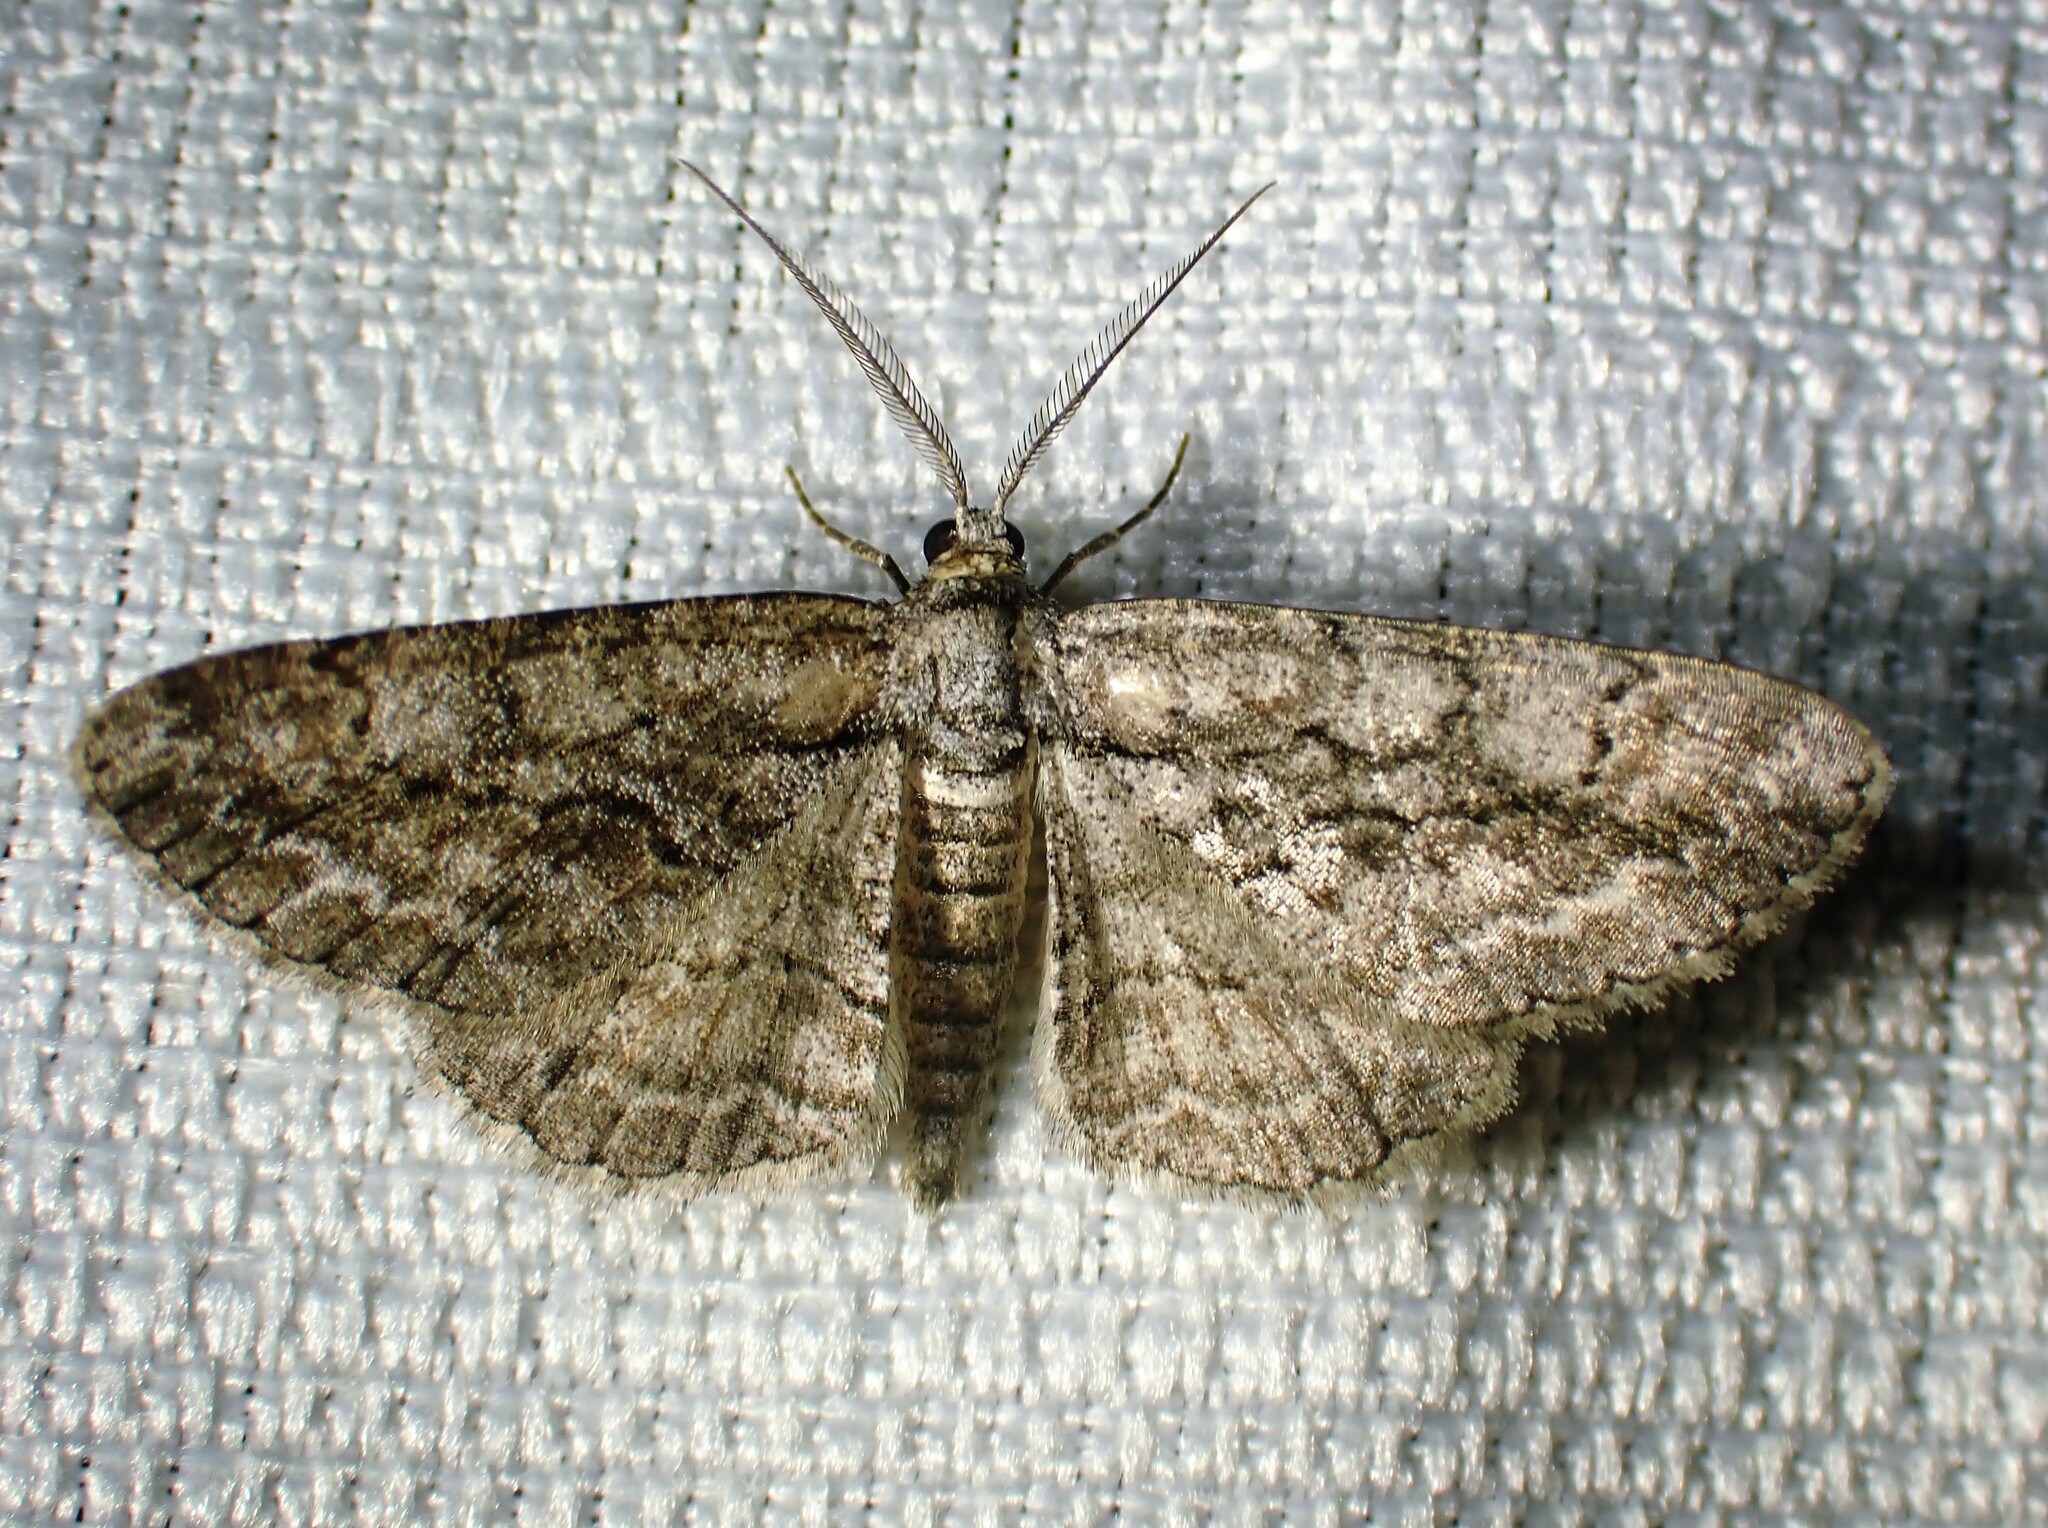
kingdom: Animalia
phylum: Arthropoda
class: Insecta
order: Lepidoptera
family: Geometridae
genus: Anavitrinella
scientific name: Anavitrinella pampinaria
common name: Common gray
